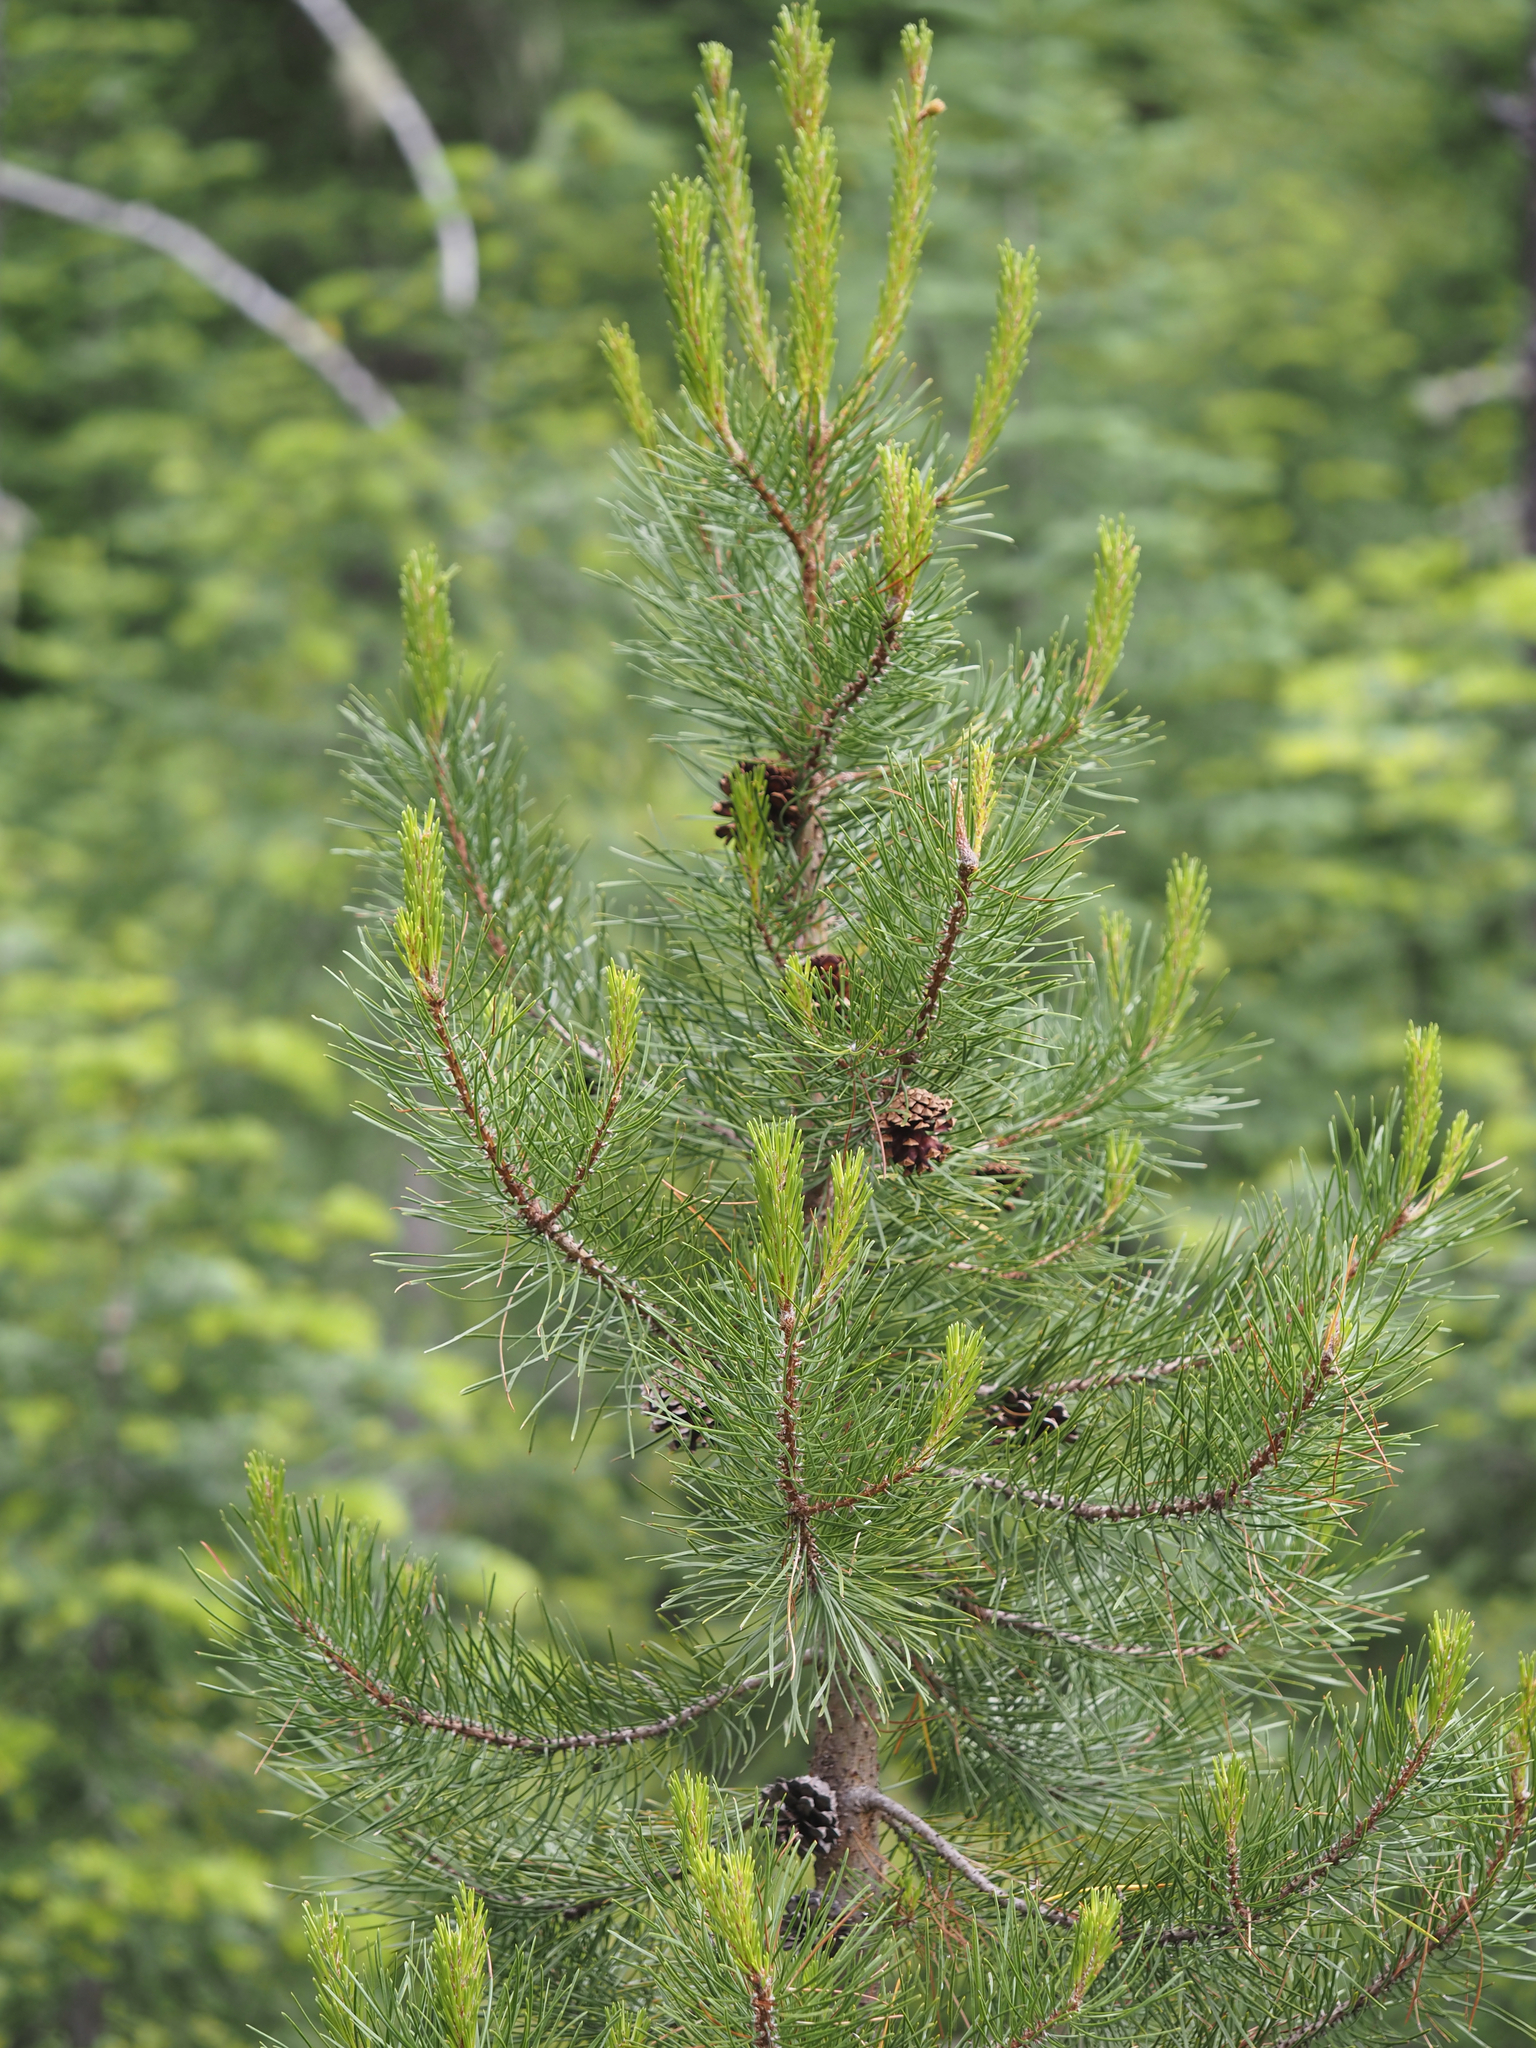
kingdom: Plantae
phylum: Tracheophyta
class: Pinopsida
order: Pinales
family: Pinaceae
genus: Pinus
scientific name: Pinus contorta
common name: Lodgepole pine
